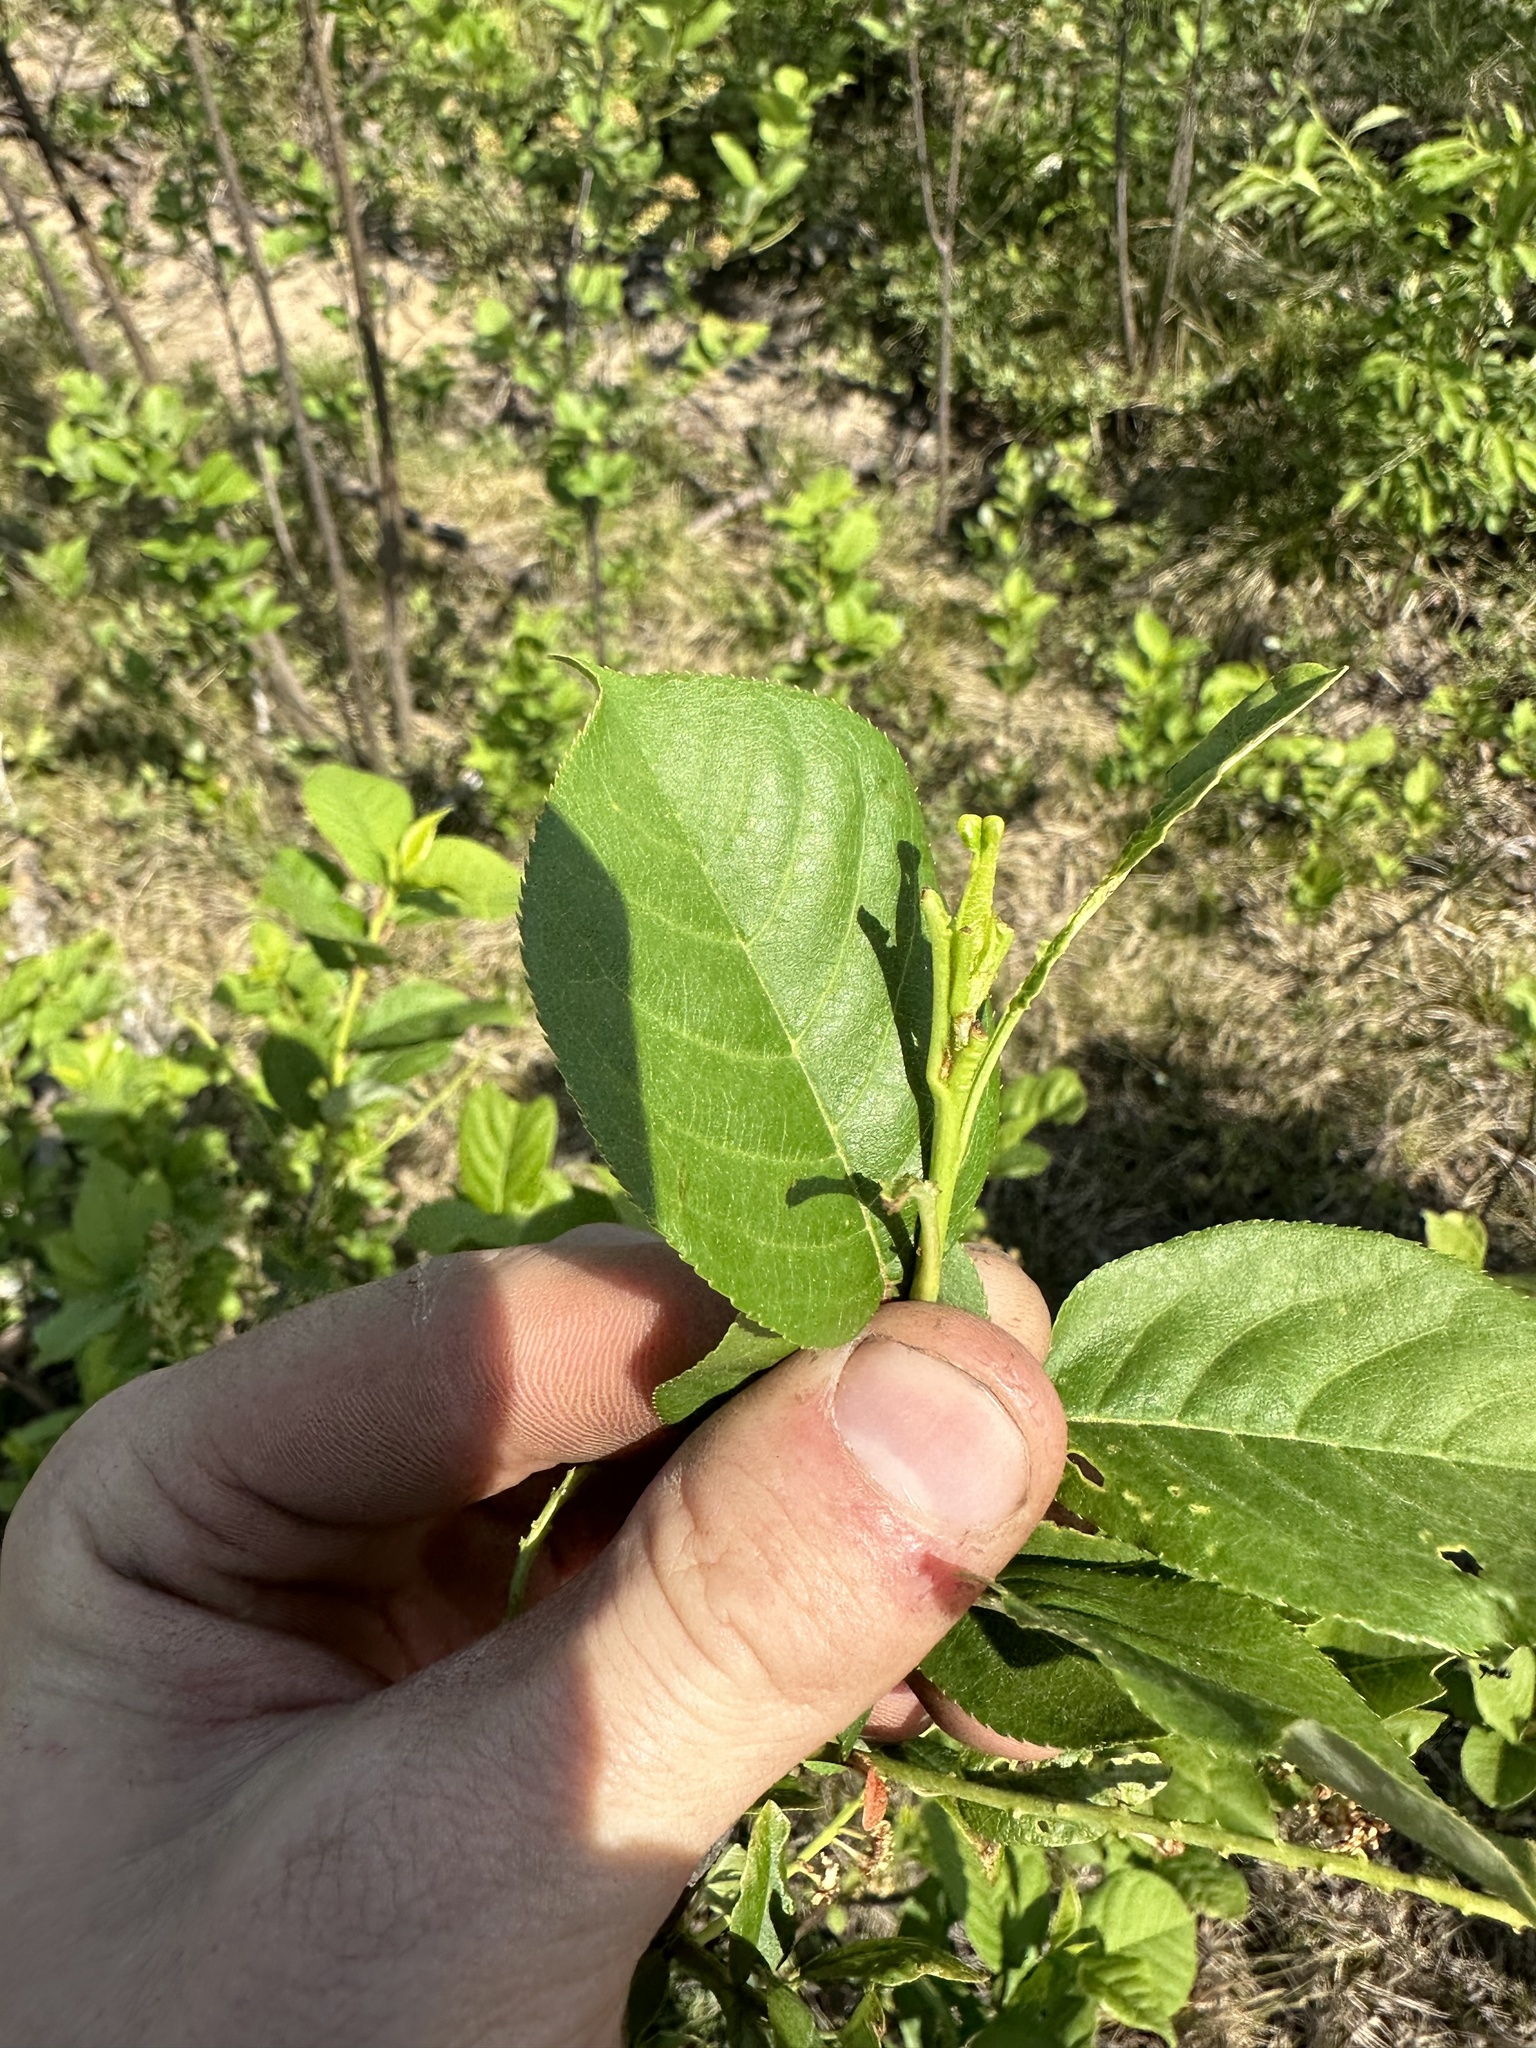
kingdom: Plantae
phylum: Tracheophyta
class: Magnoliopsida
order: Rosales
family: Rosaceae
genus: Prunus
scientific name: Prunus virginiana
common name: Chokecherry
